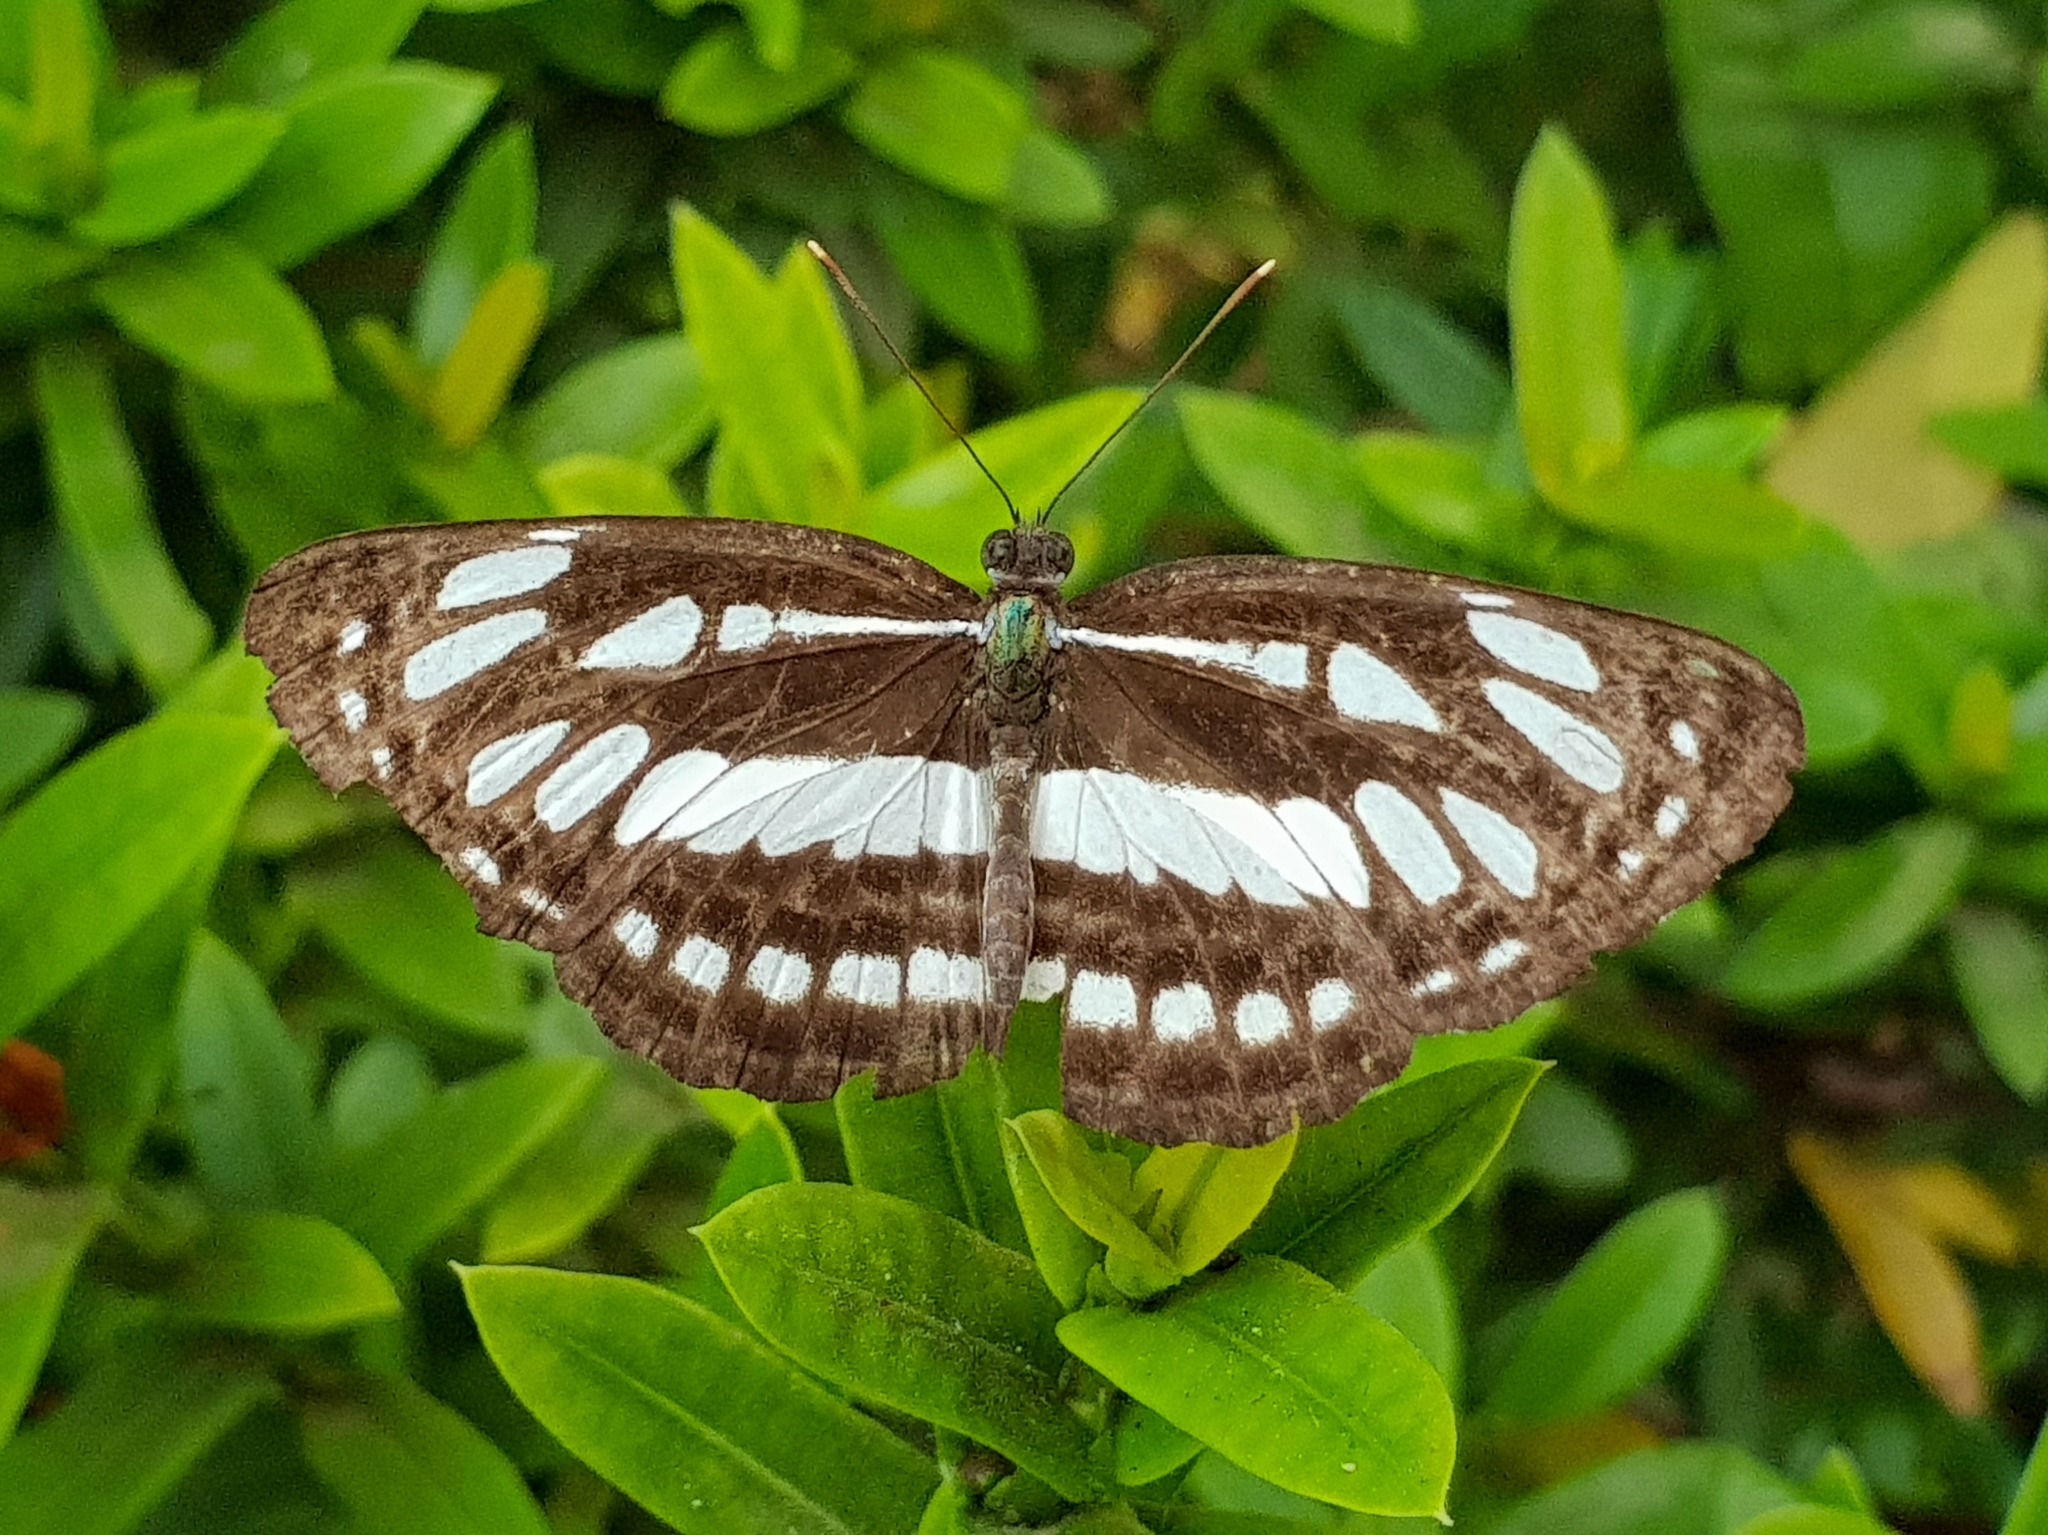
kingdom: Animalia
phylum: Arthropoda
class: Insecta
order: Lepidoptera
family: Nymphalidae
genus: Neptis
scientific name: Neptis hylas
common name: Common sailer
